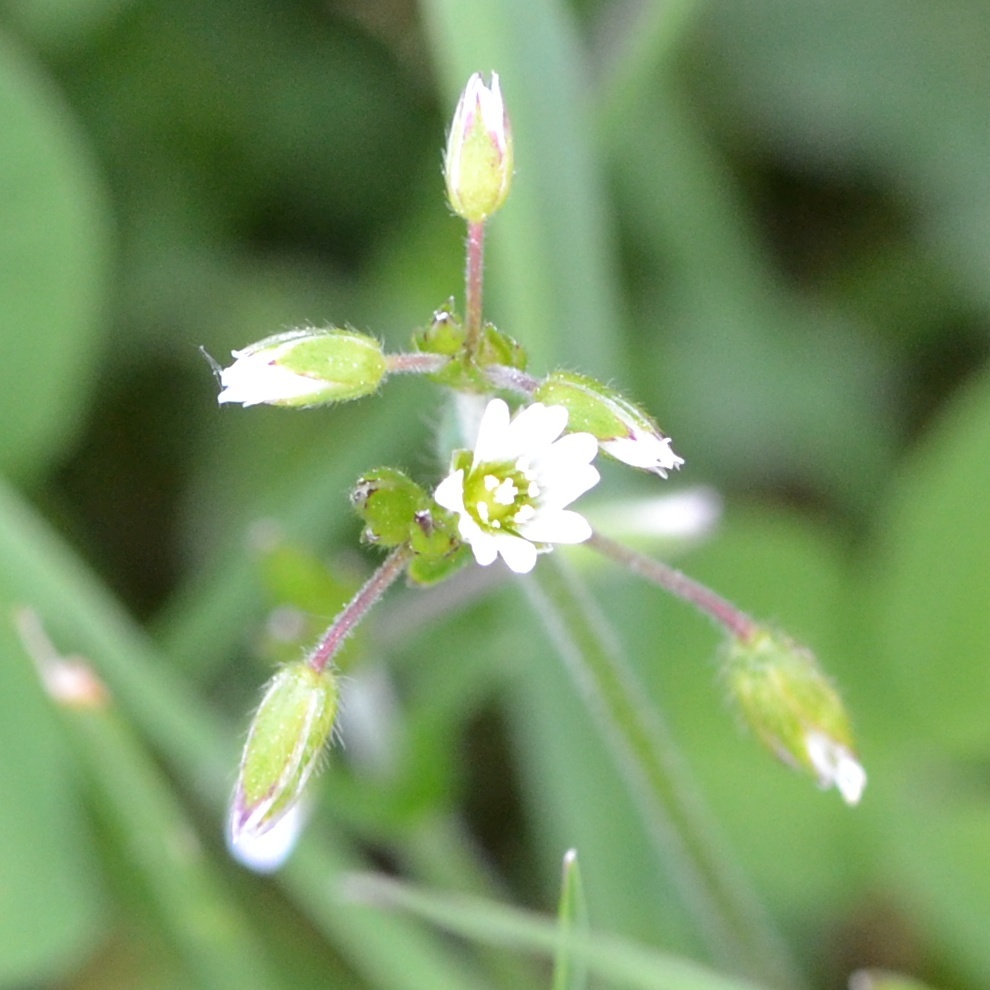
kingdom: Plantae
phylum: Tracheophyta
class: Magnoliopsida
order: Caryophyllales
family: Caryophyllaceae
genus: Cerastium
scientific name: Cerastium holosteoides
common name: Big chickweed
